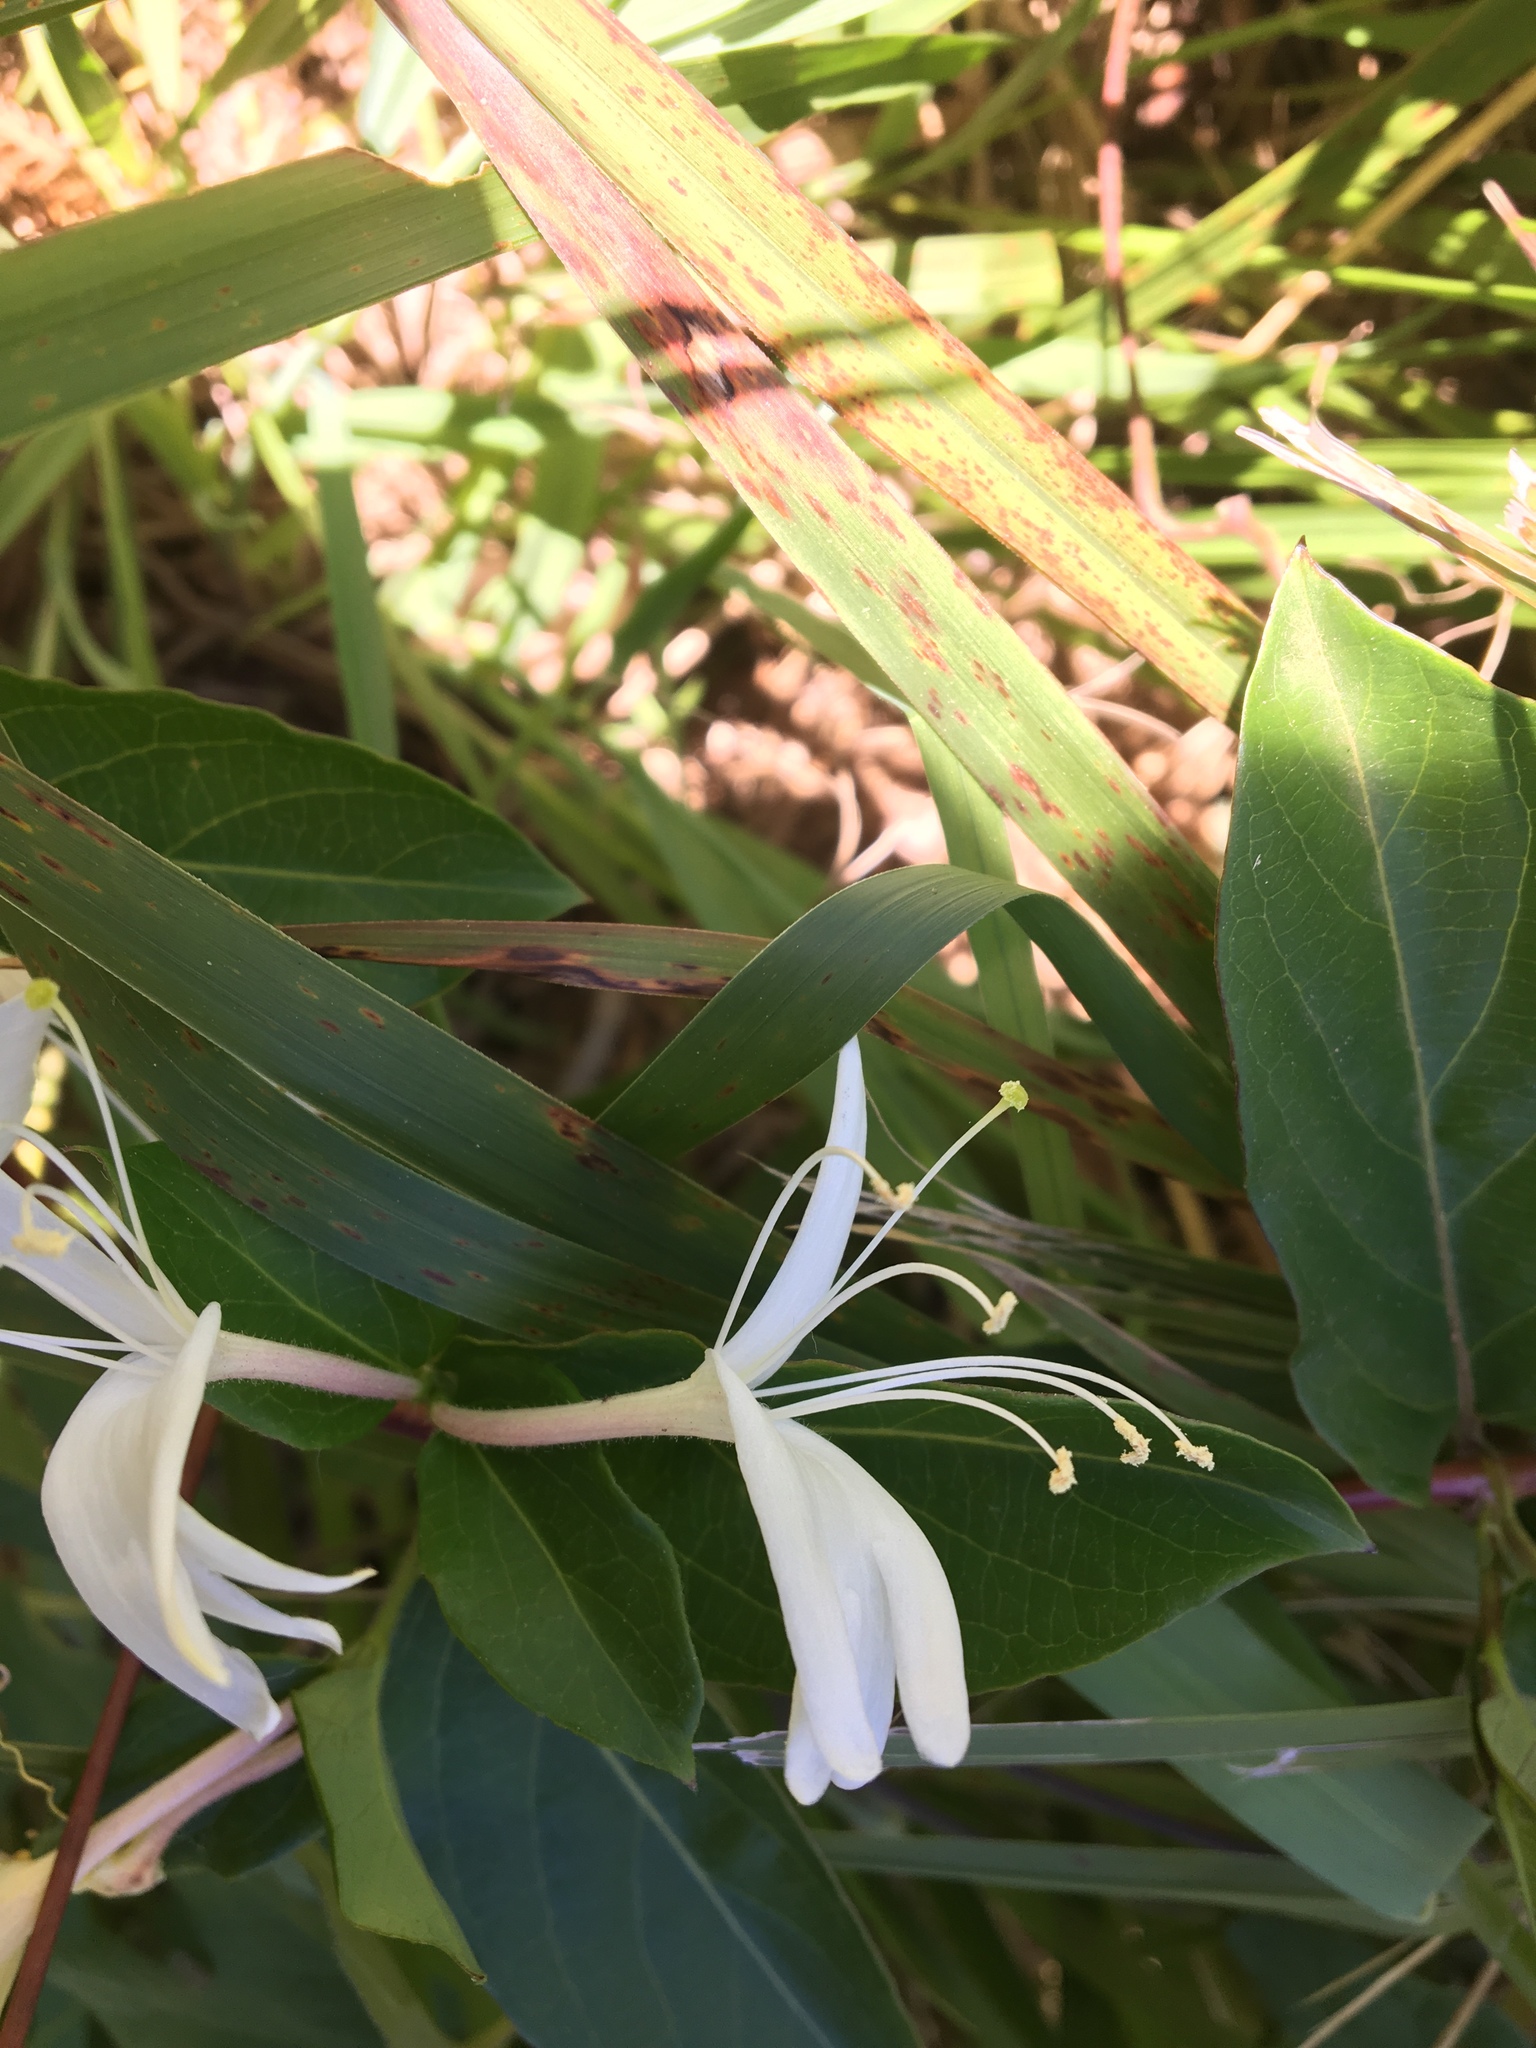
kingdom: Plantae
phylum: Tracheophyta
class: Magnoliopsida
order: Dipsacales
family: Caprifoliaceae
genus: Lonicera
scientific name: Lonicera japonica
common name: Japanese honeysuckle
